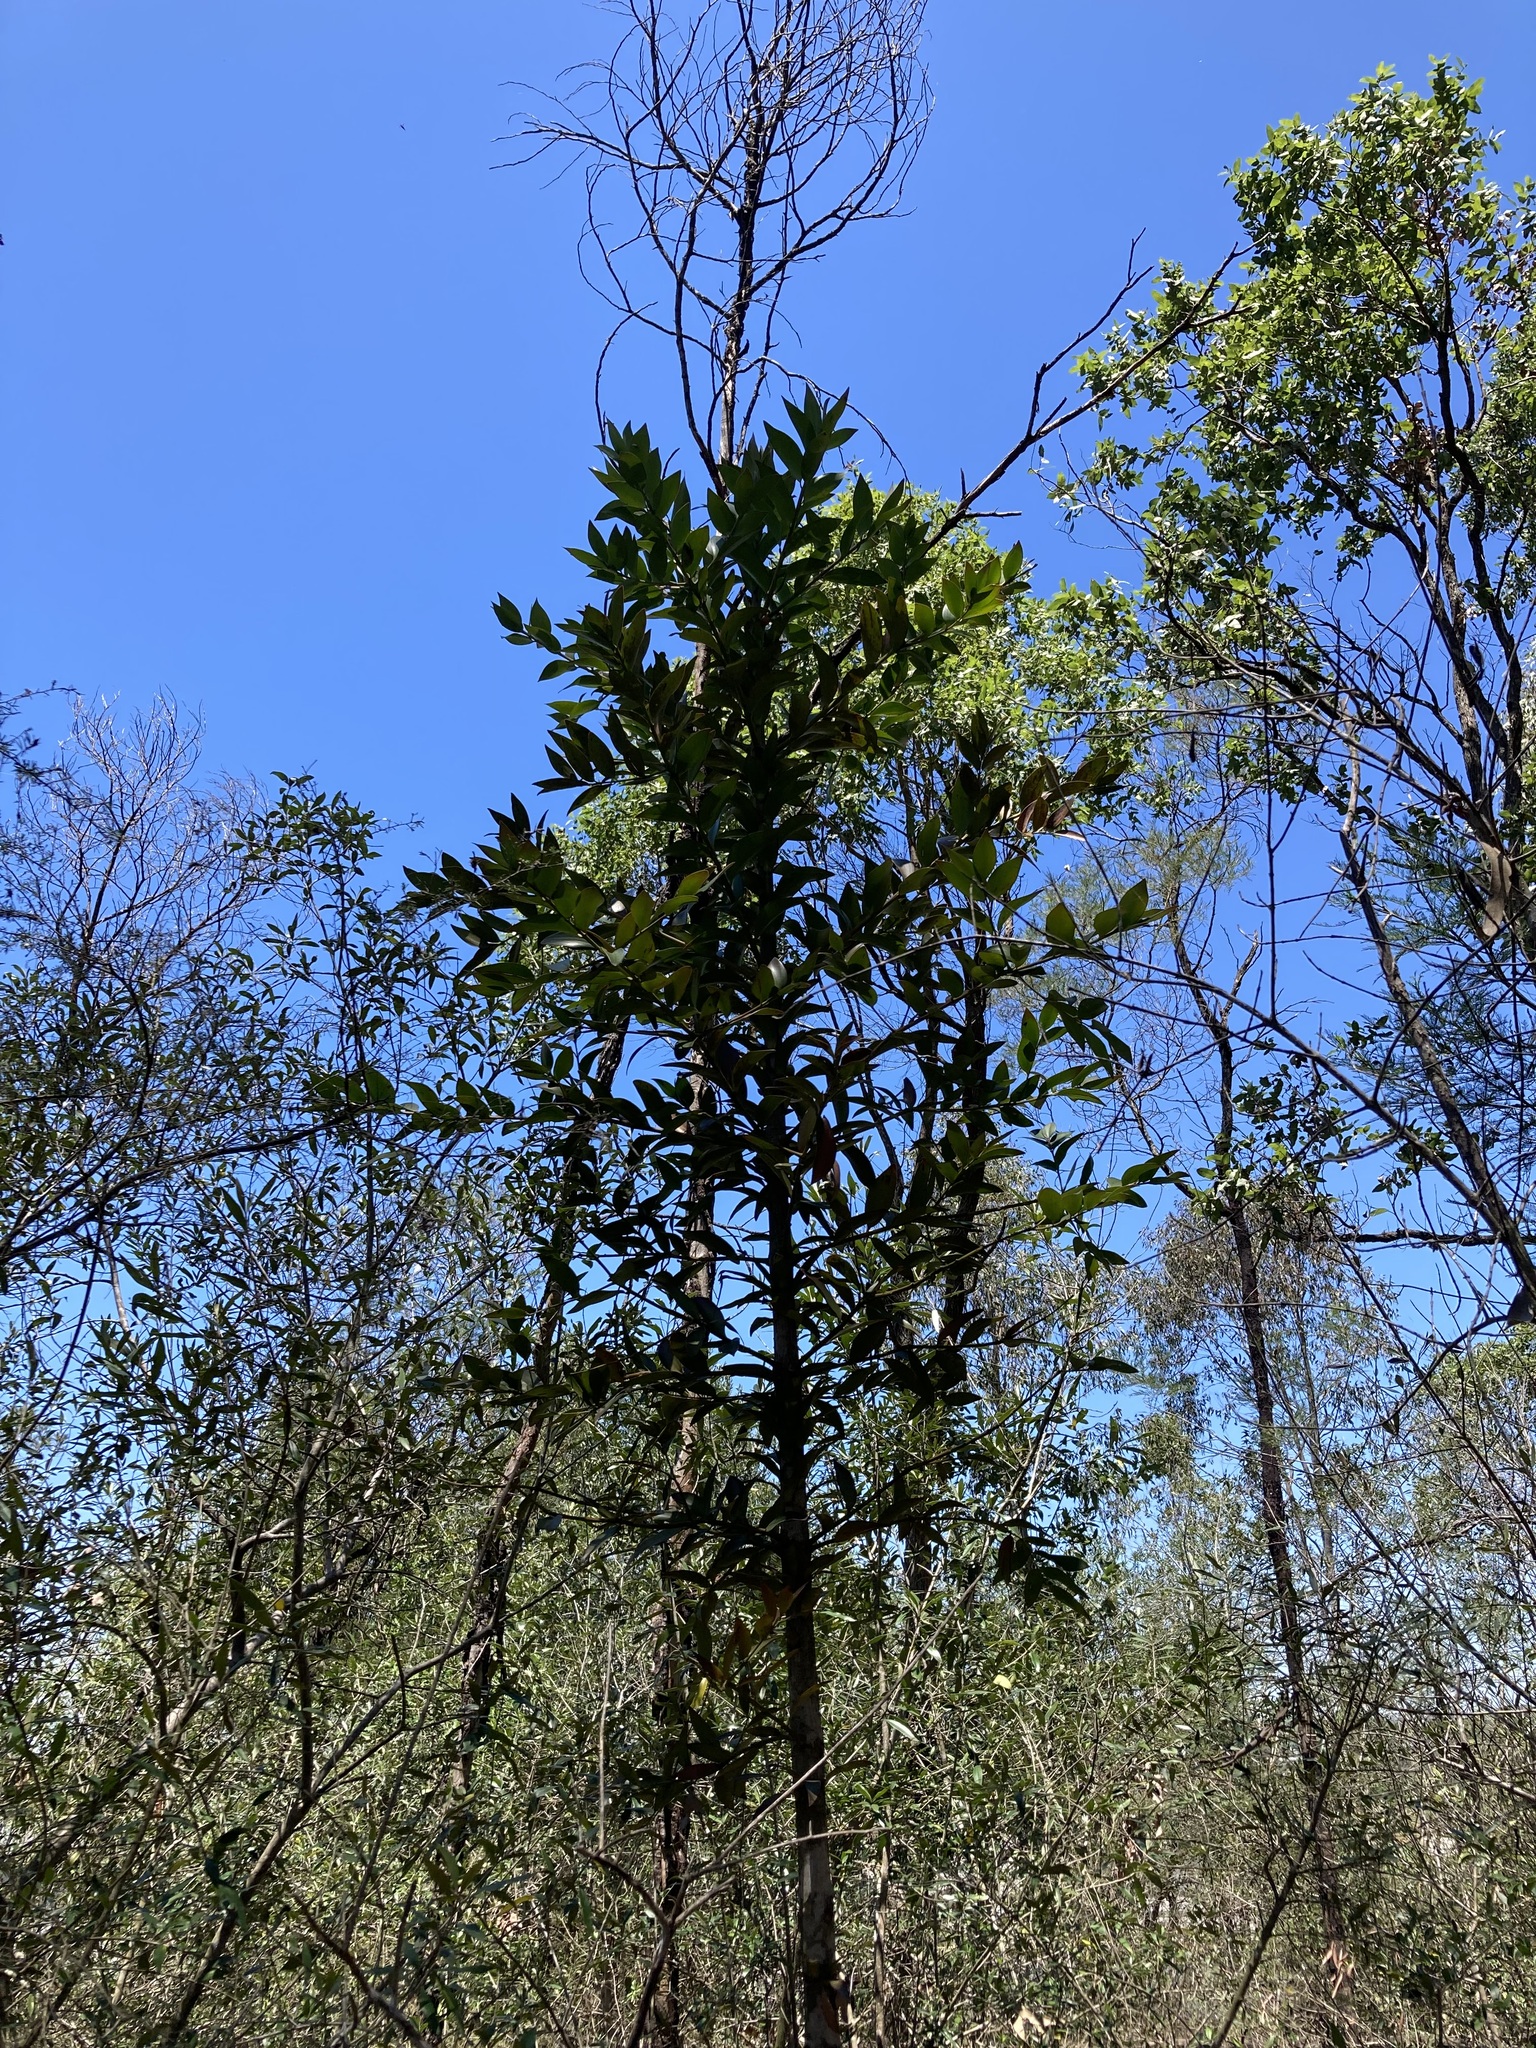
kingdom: Plantae
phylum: Tracheophyta
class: Pinopsida
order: Pinales
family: Araucariaceae
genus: Agathis
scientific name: Agathis robusta
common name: Australian-kauri
